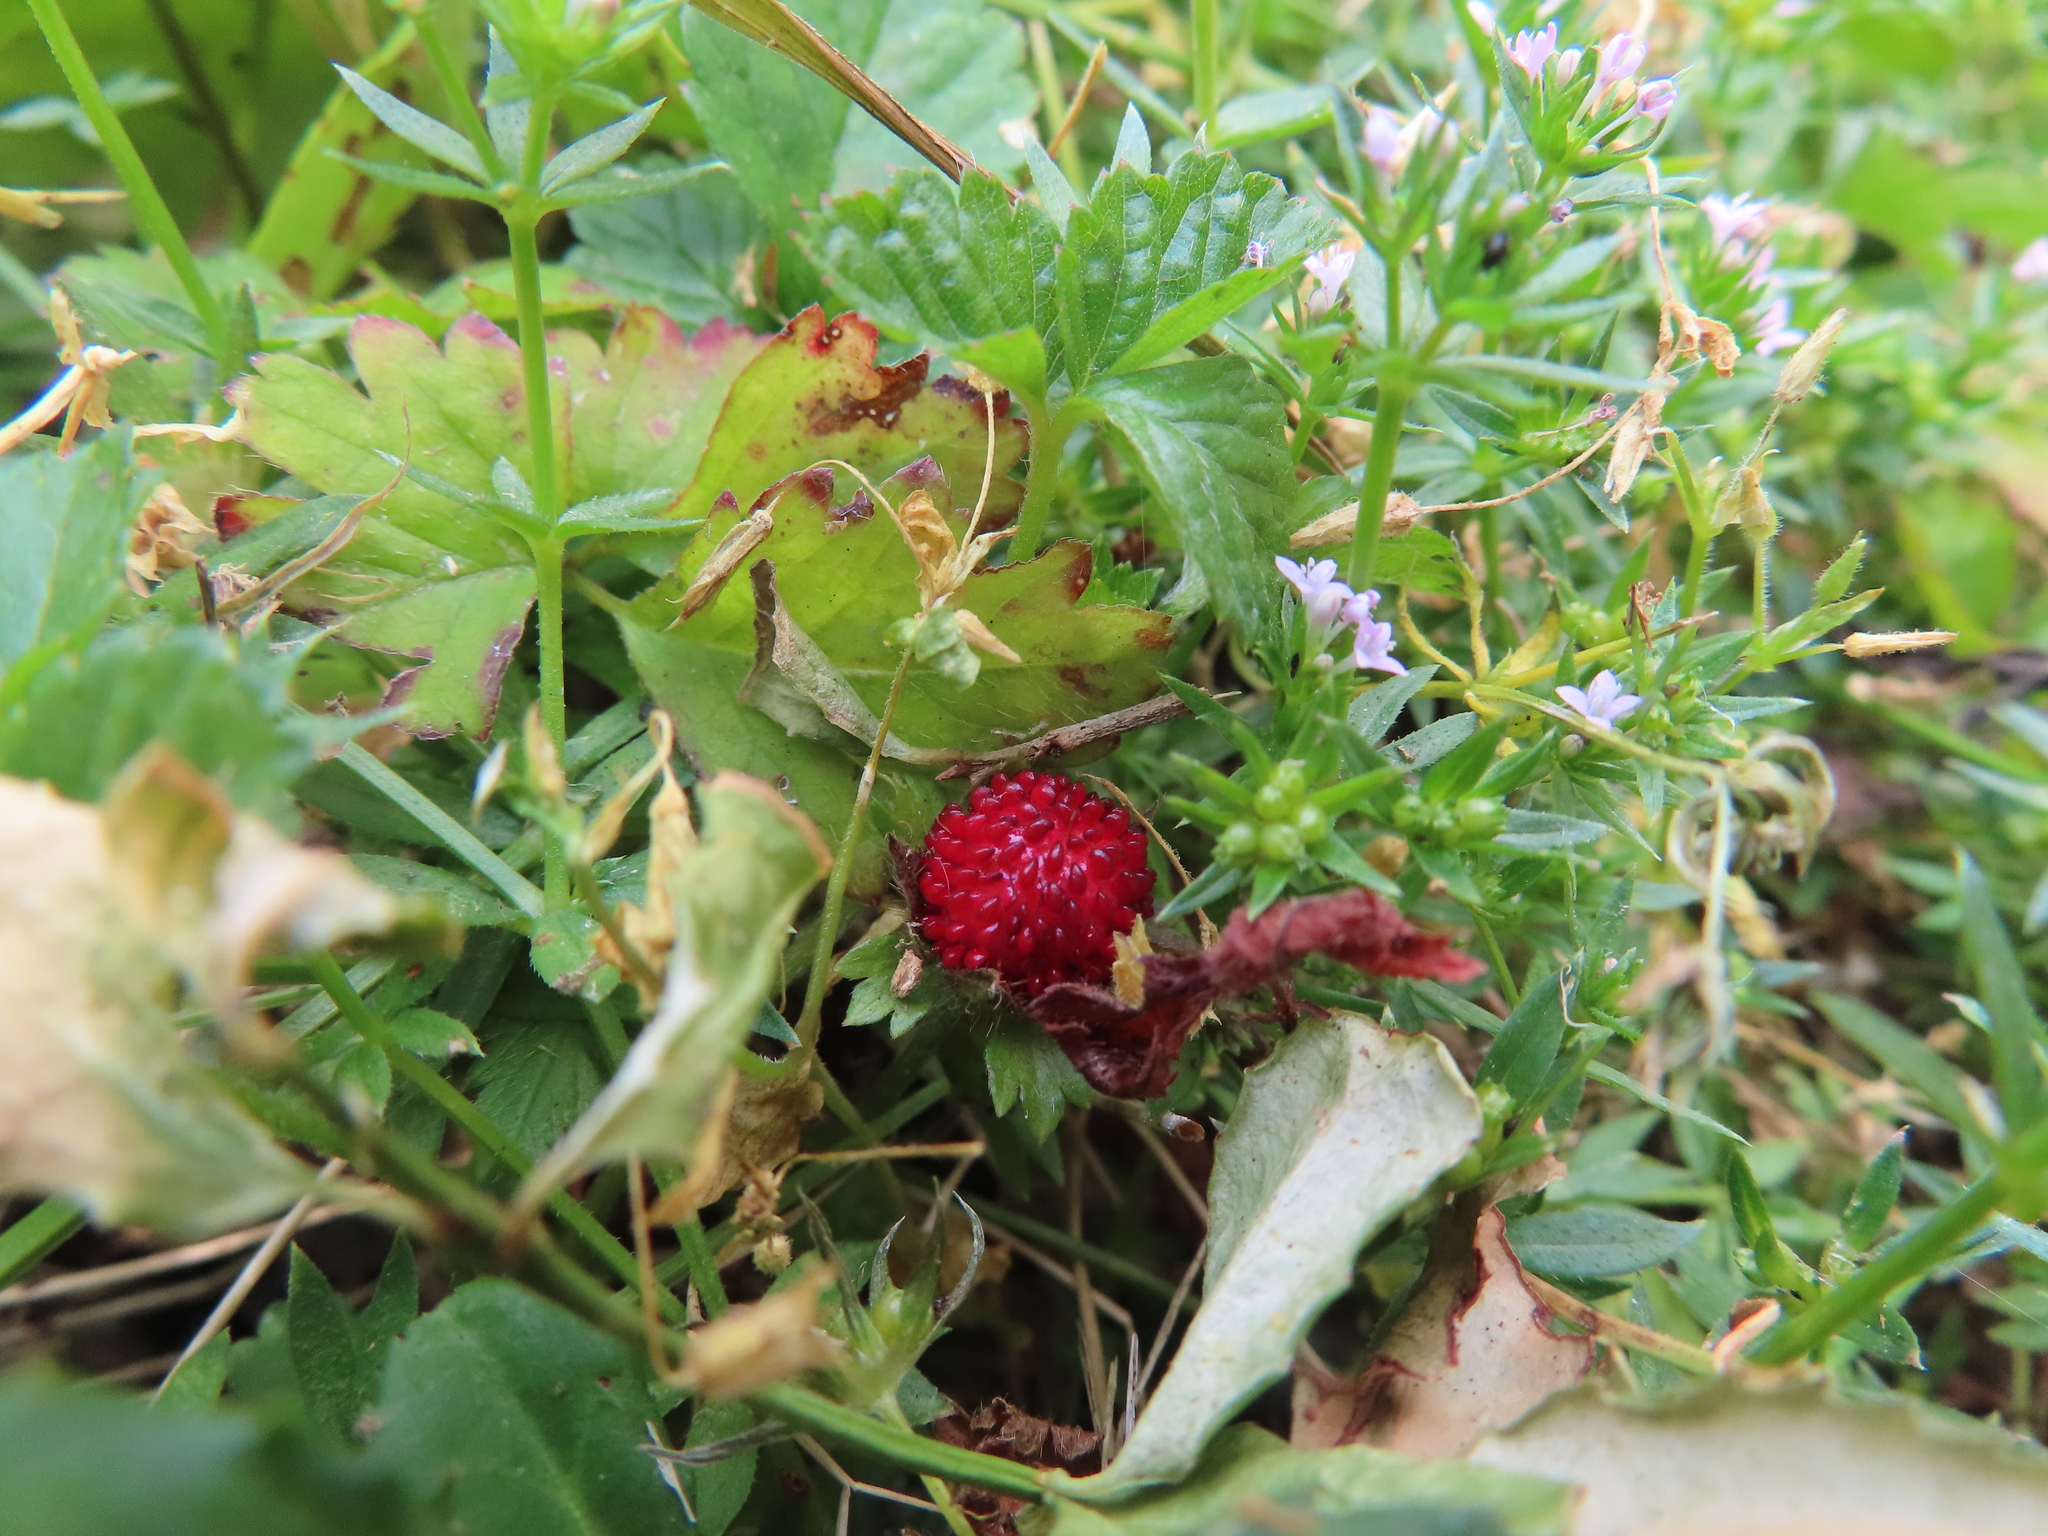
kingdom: Plantae
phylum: Tracheophyta
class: Magnoliopsida
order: Rosales
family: Rosaceae
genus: Potentilla
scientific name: Potentilla indica
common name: Yellow-flowered strawberry
